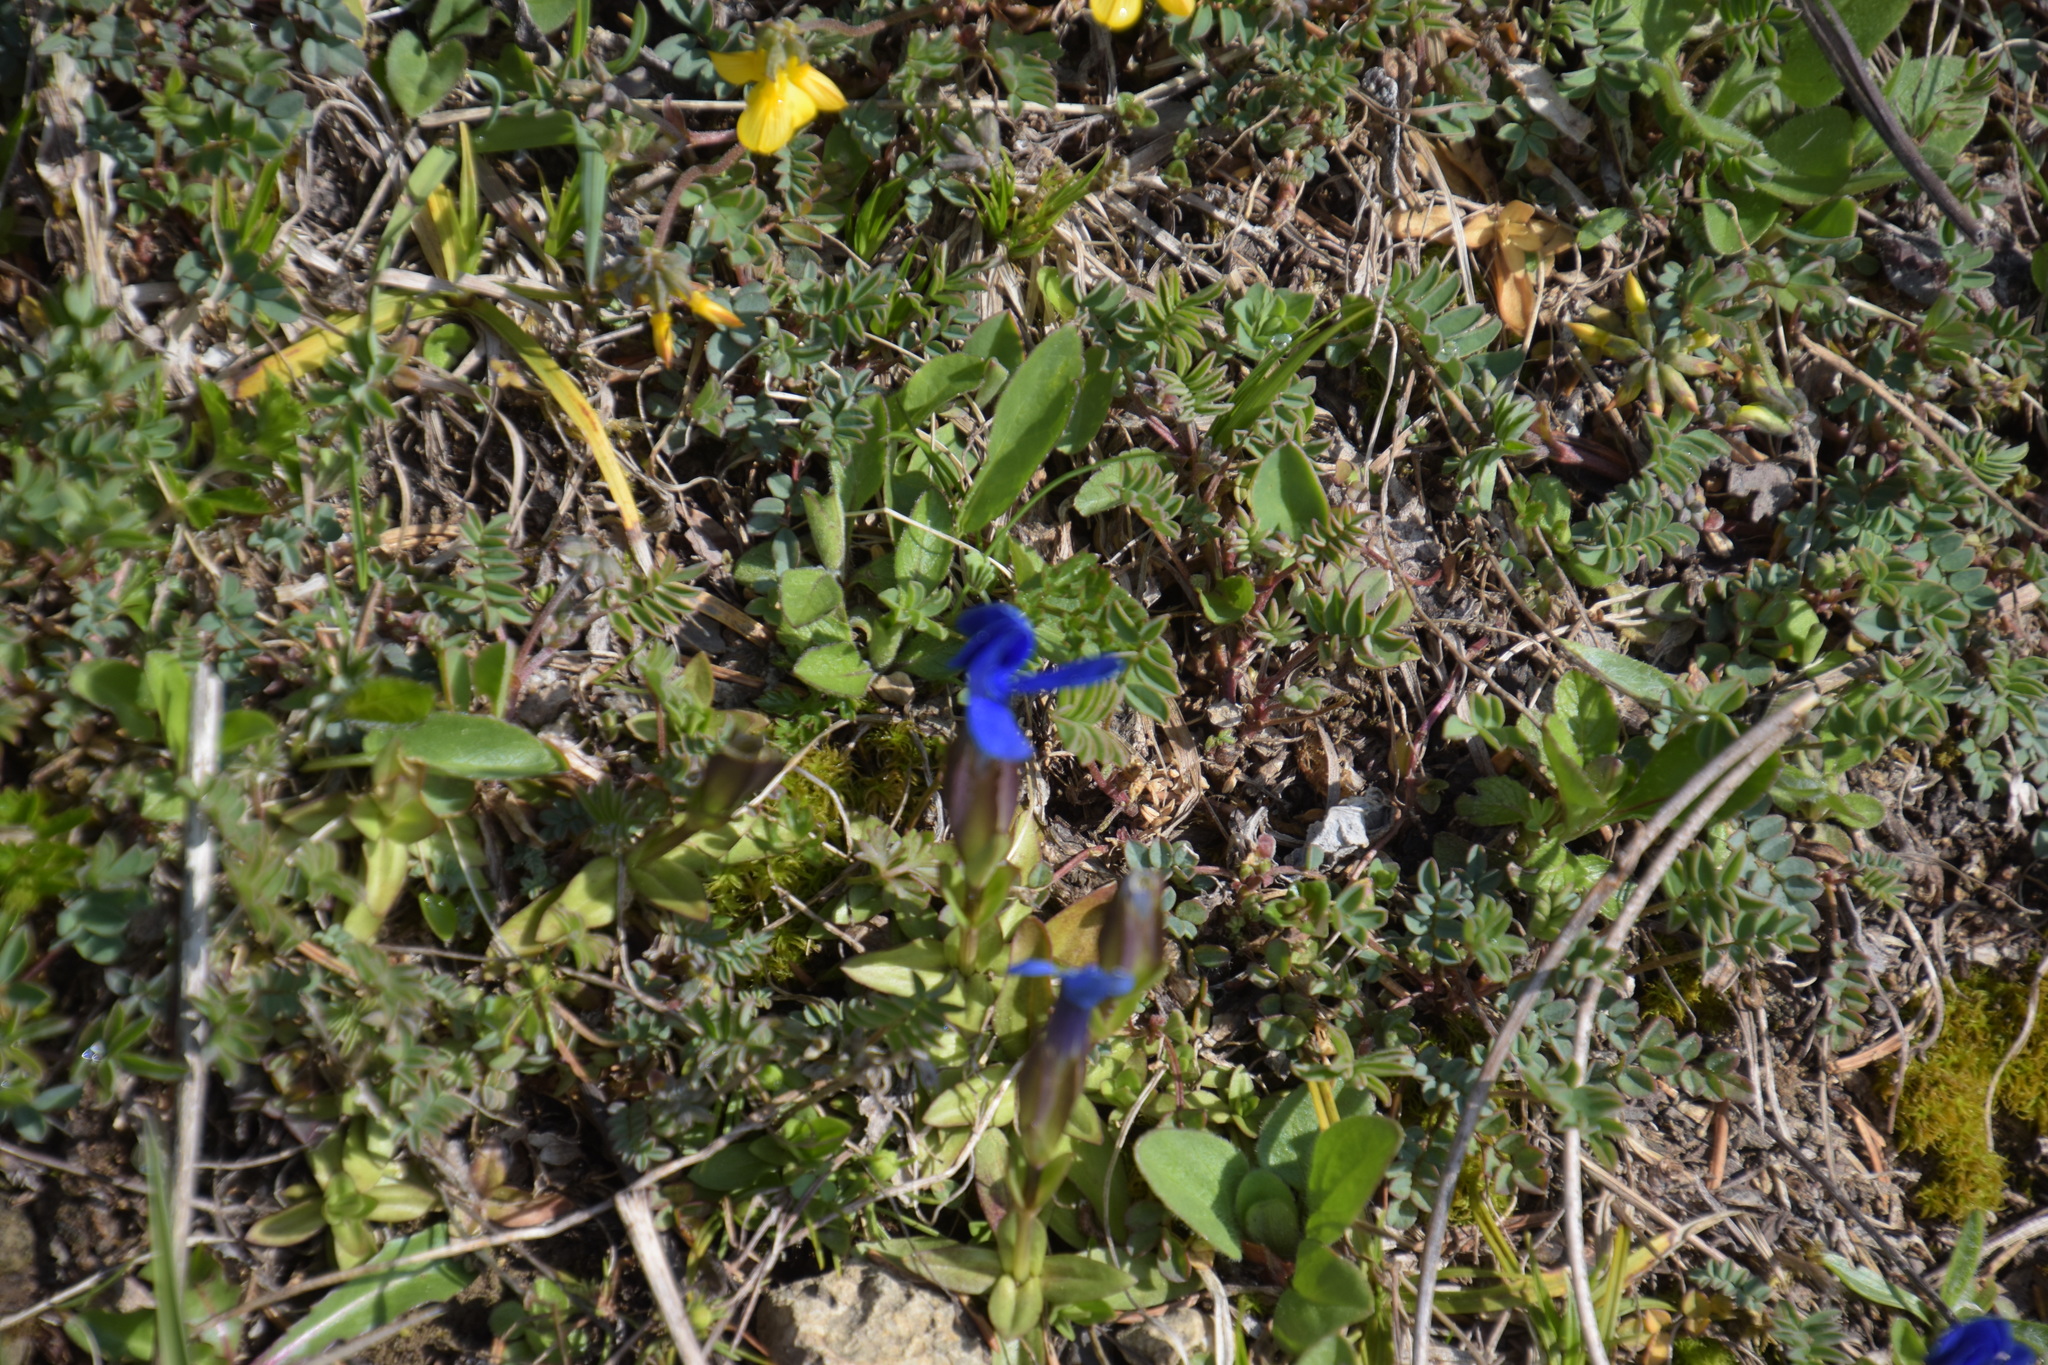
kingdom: Plantae
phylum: Tracheophyta
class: Magnoliopsida
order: Gentianales
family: Gentianaceae
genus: Gentiana
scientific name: Gentiana verna
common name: Spring gentian
